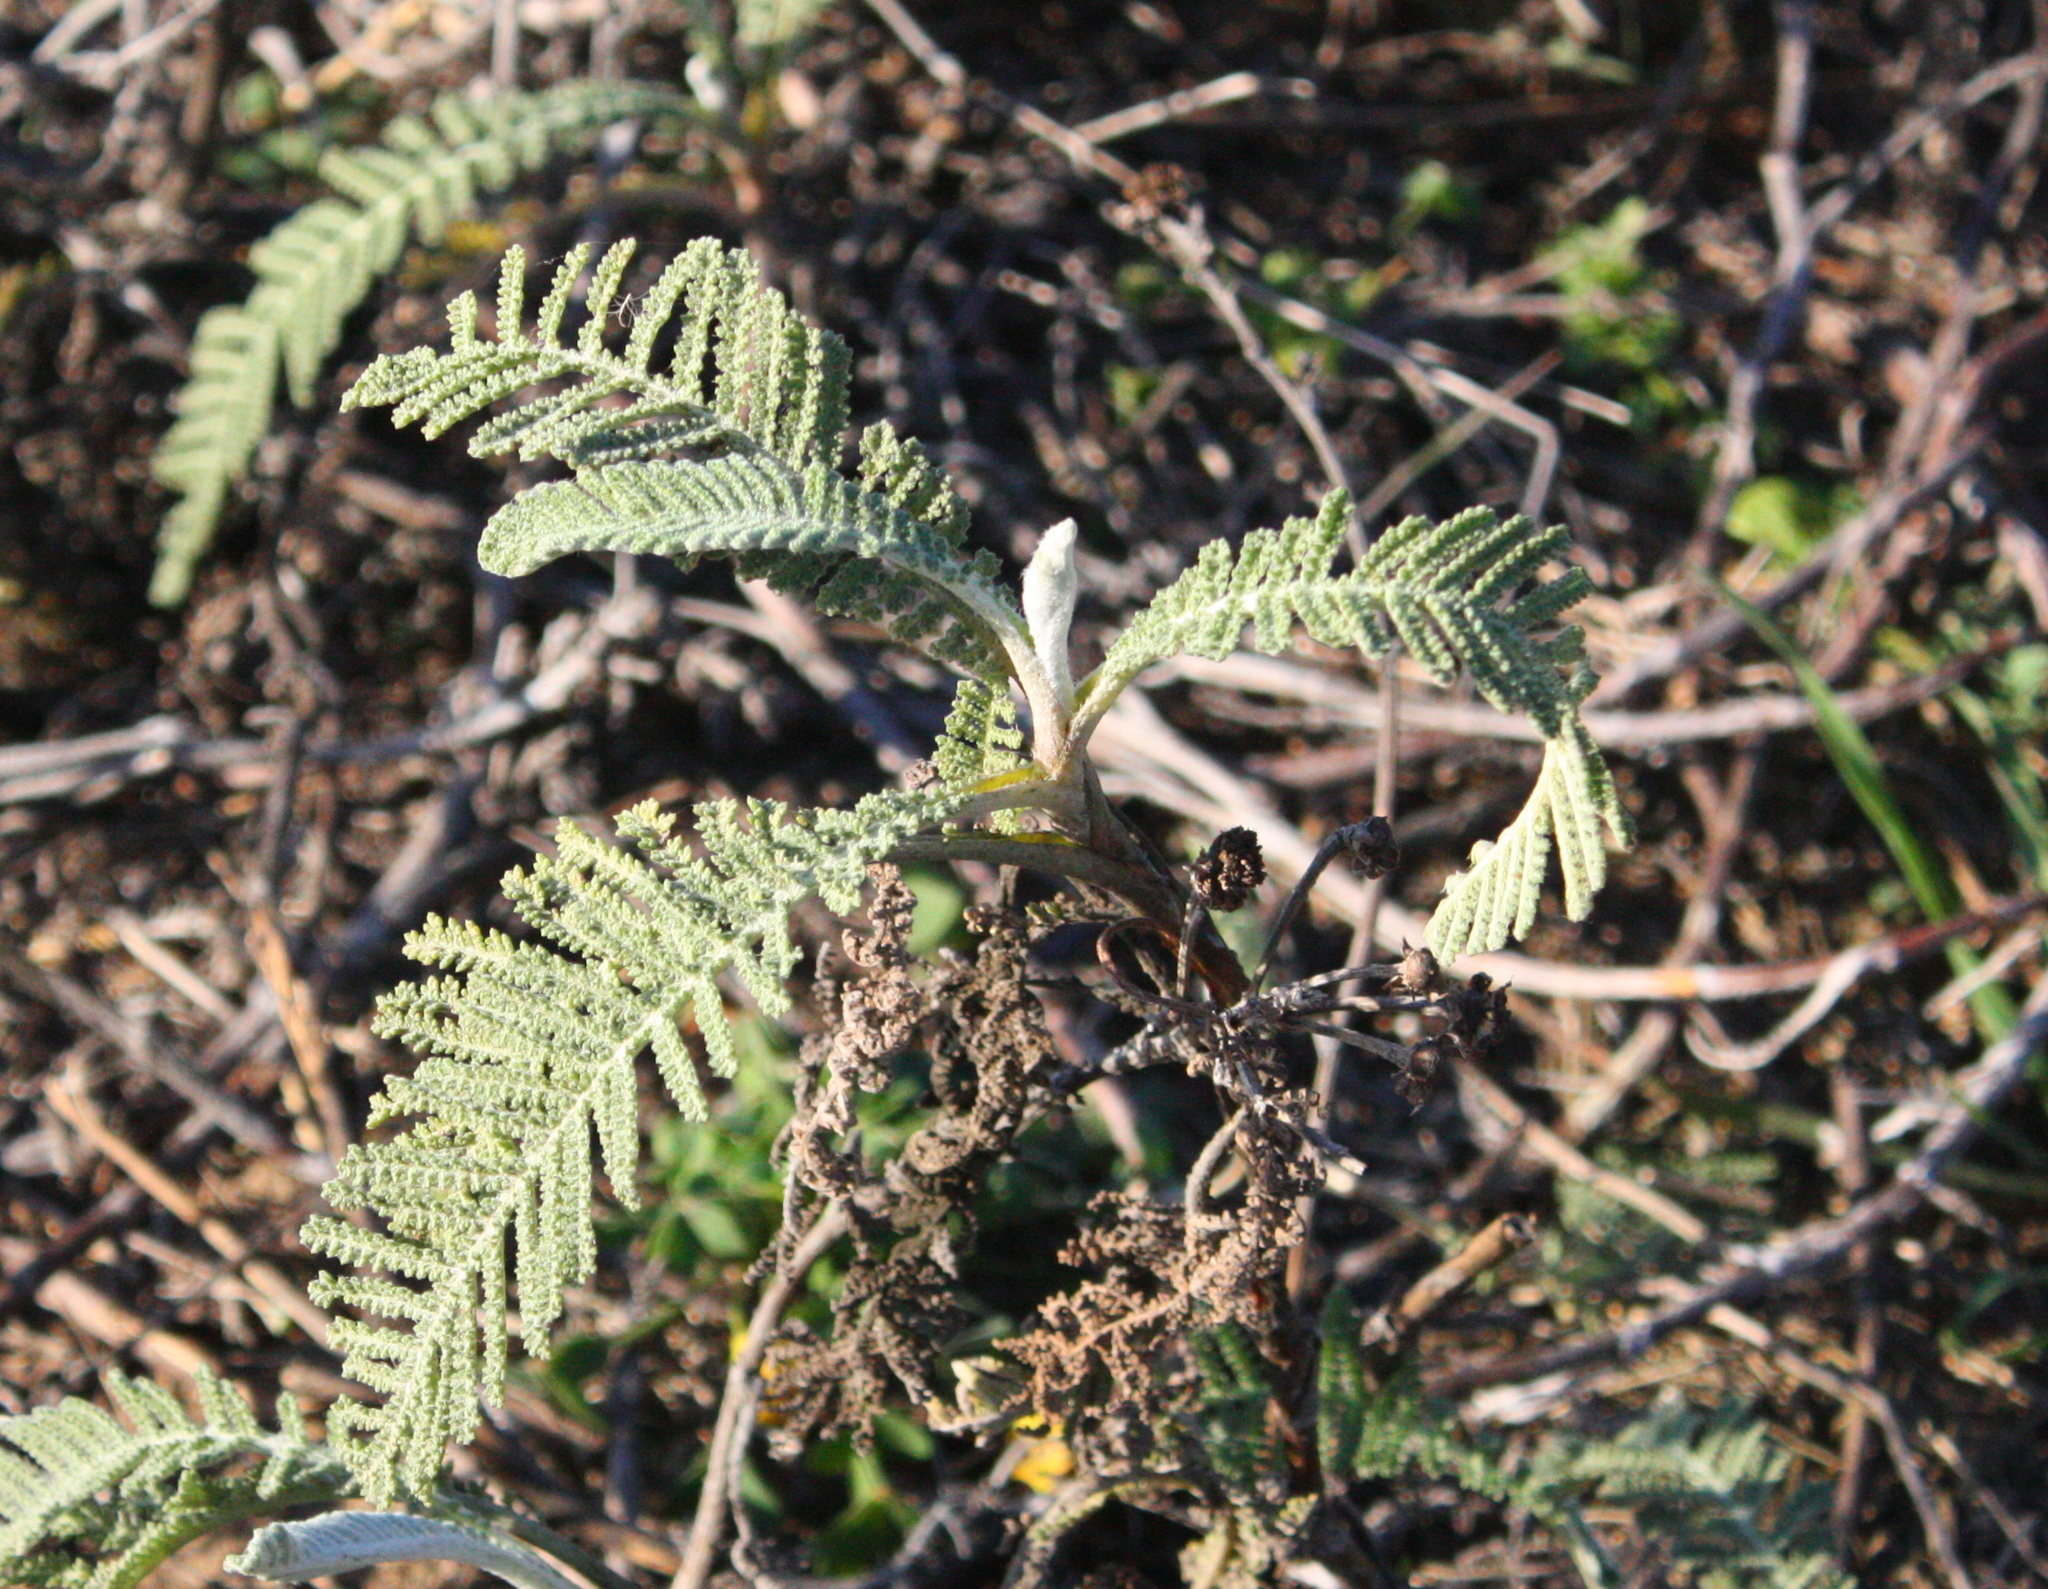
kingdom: Plantae
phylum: Tracheophyta
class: Magnoliopsida
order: Asterales
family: Asteraceae
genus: Tanacetum
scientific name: Tanacetum bipinnatum
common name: Dwarf tansy
